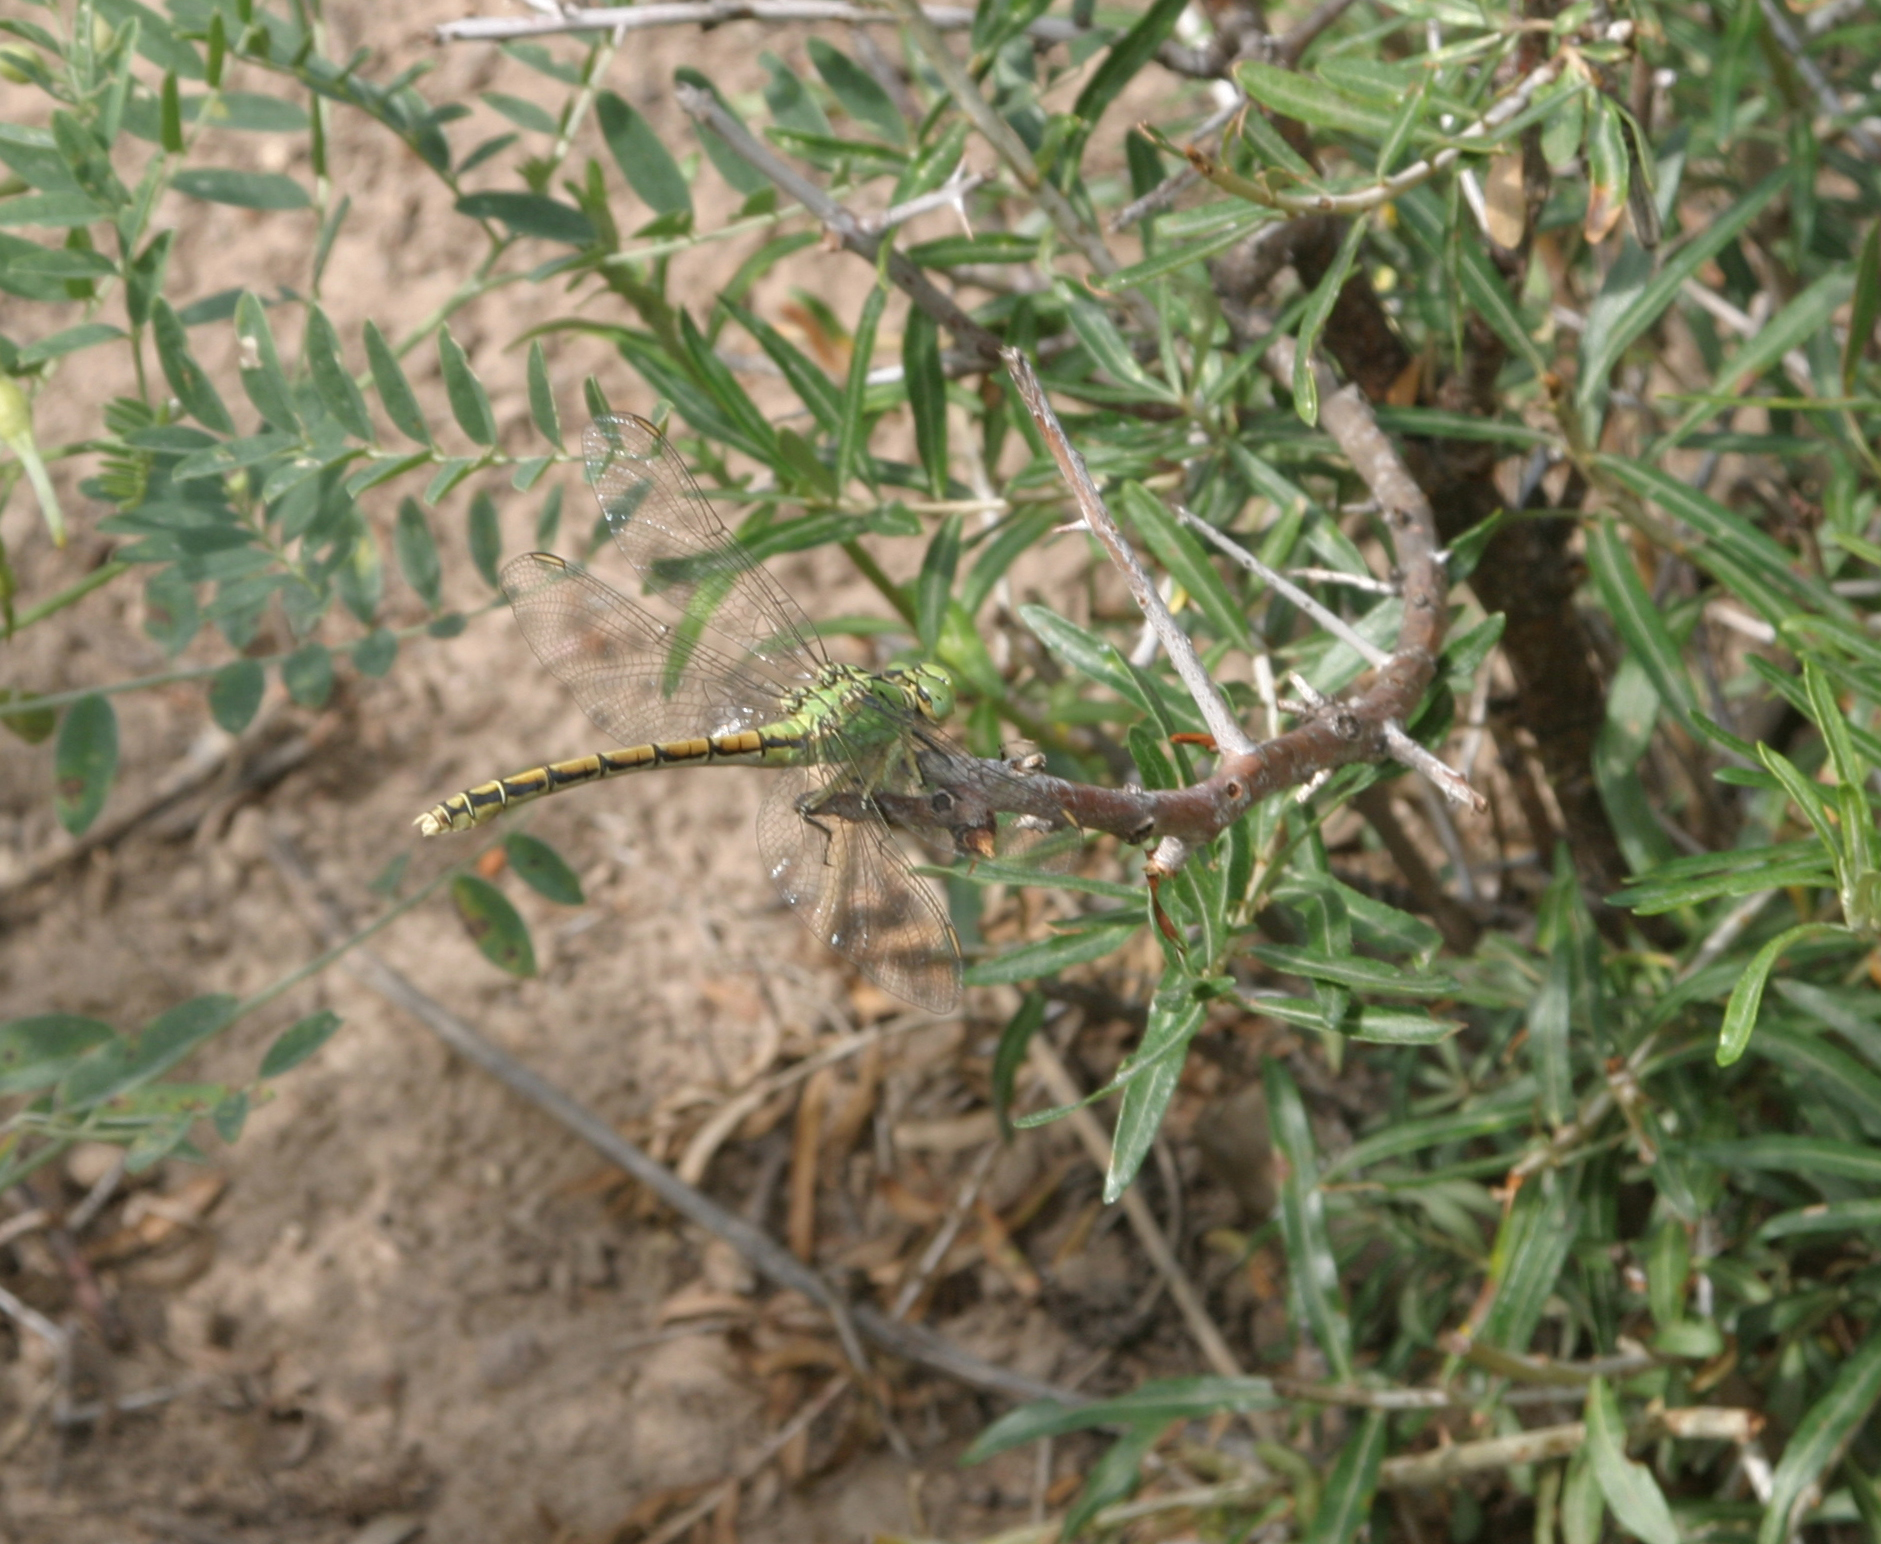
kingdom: Animalia
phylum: Arthropoda
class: Insecta
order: Odonata
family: Gomphidae
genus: Ophiogomphus
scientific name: Ophiogomphus reductus
